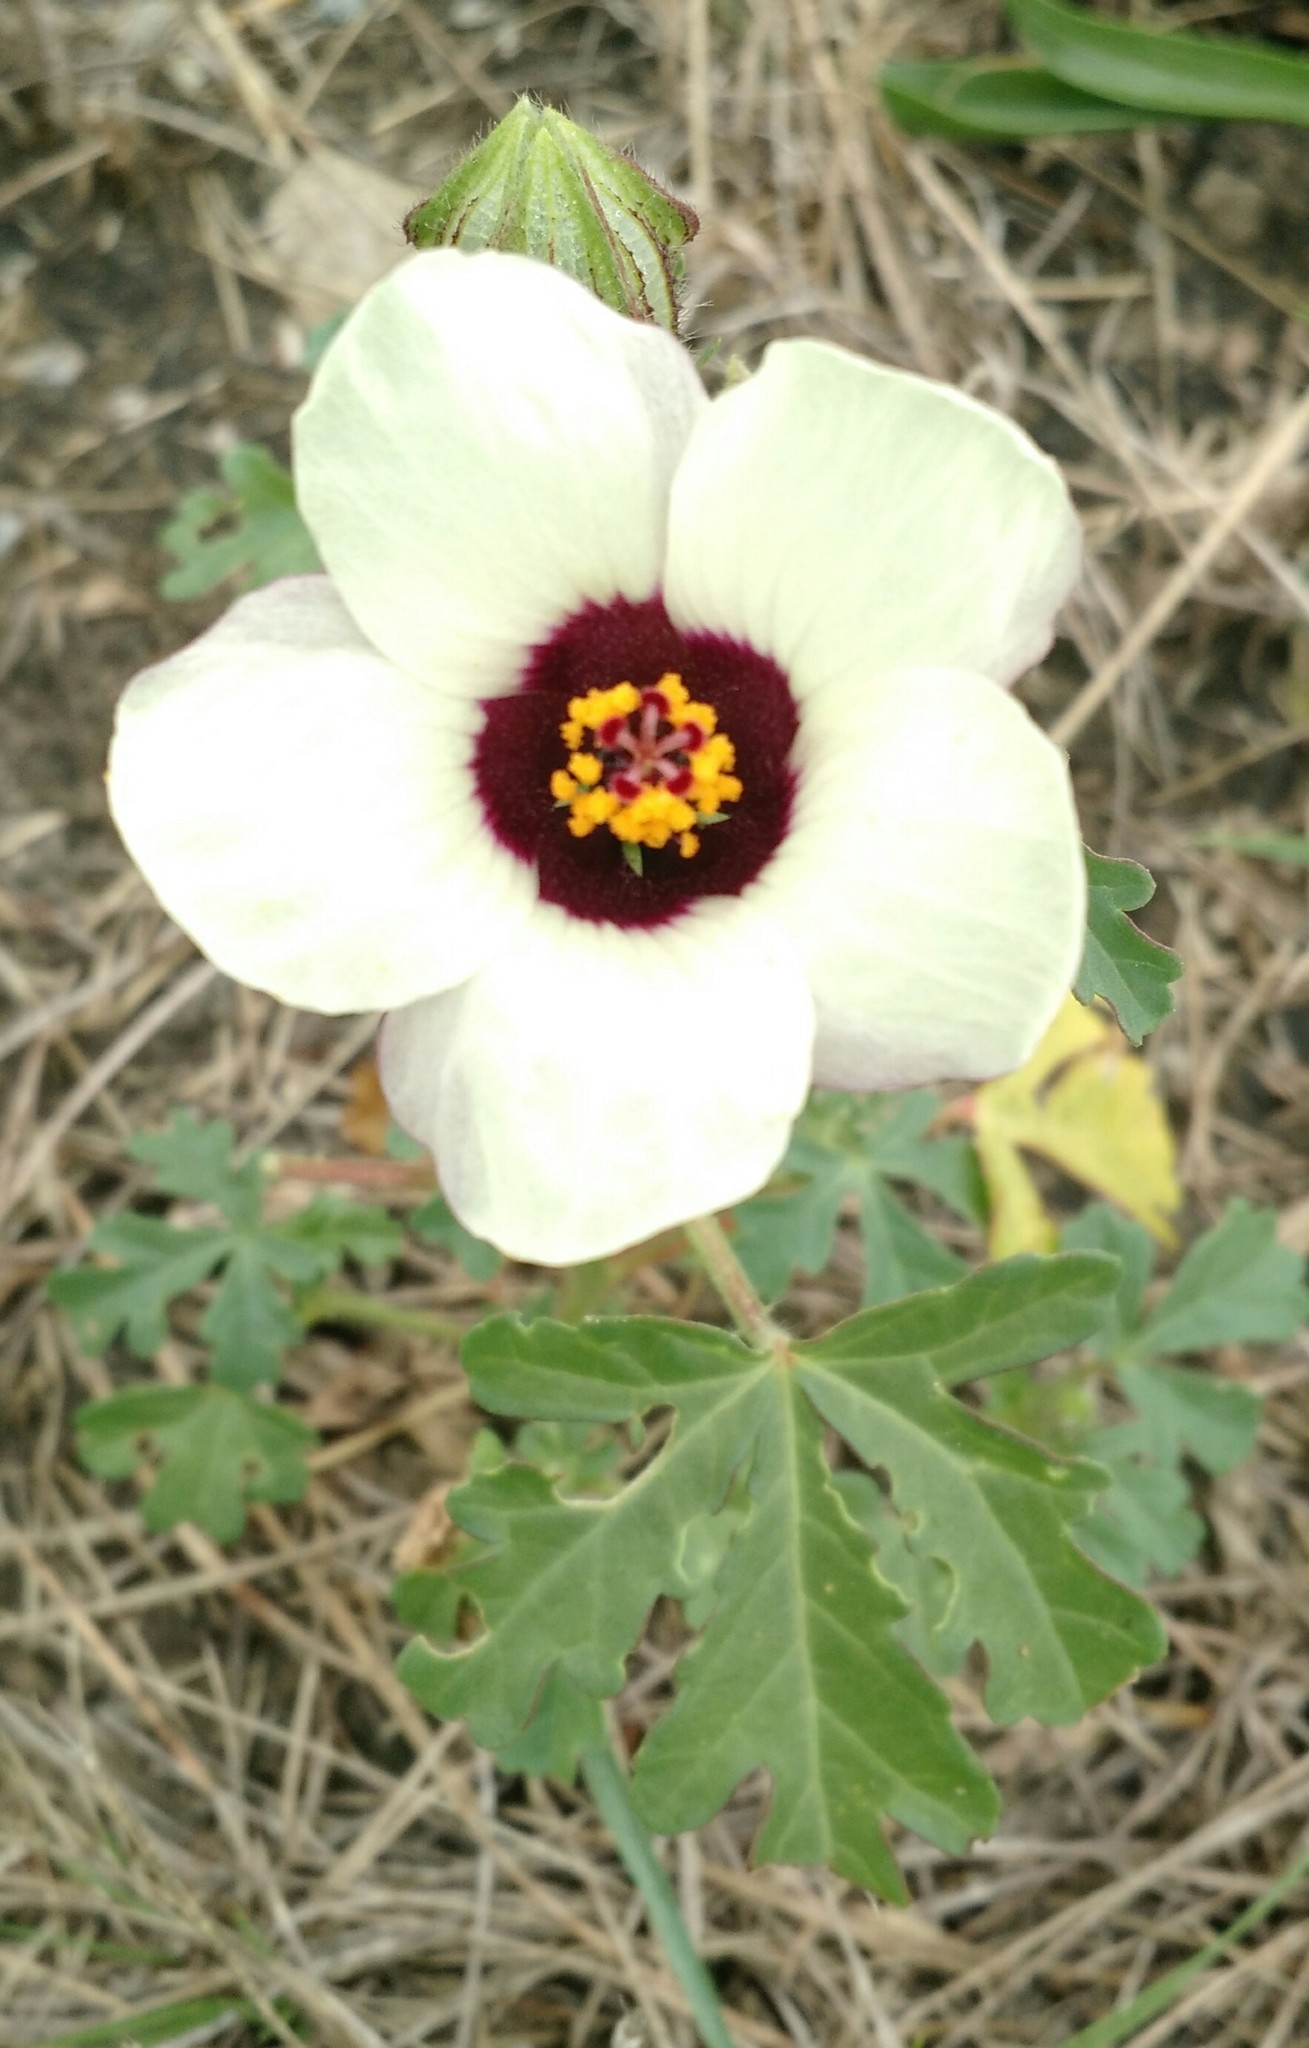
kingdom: Plantae
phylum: Tracheophyta
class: Magnoliopsida
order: Malvales
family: Malvaceae
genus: Hibiscus
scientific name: Hibiscus trionum
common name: Bladder ketmia
